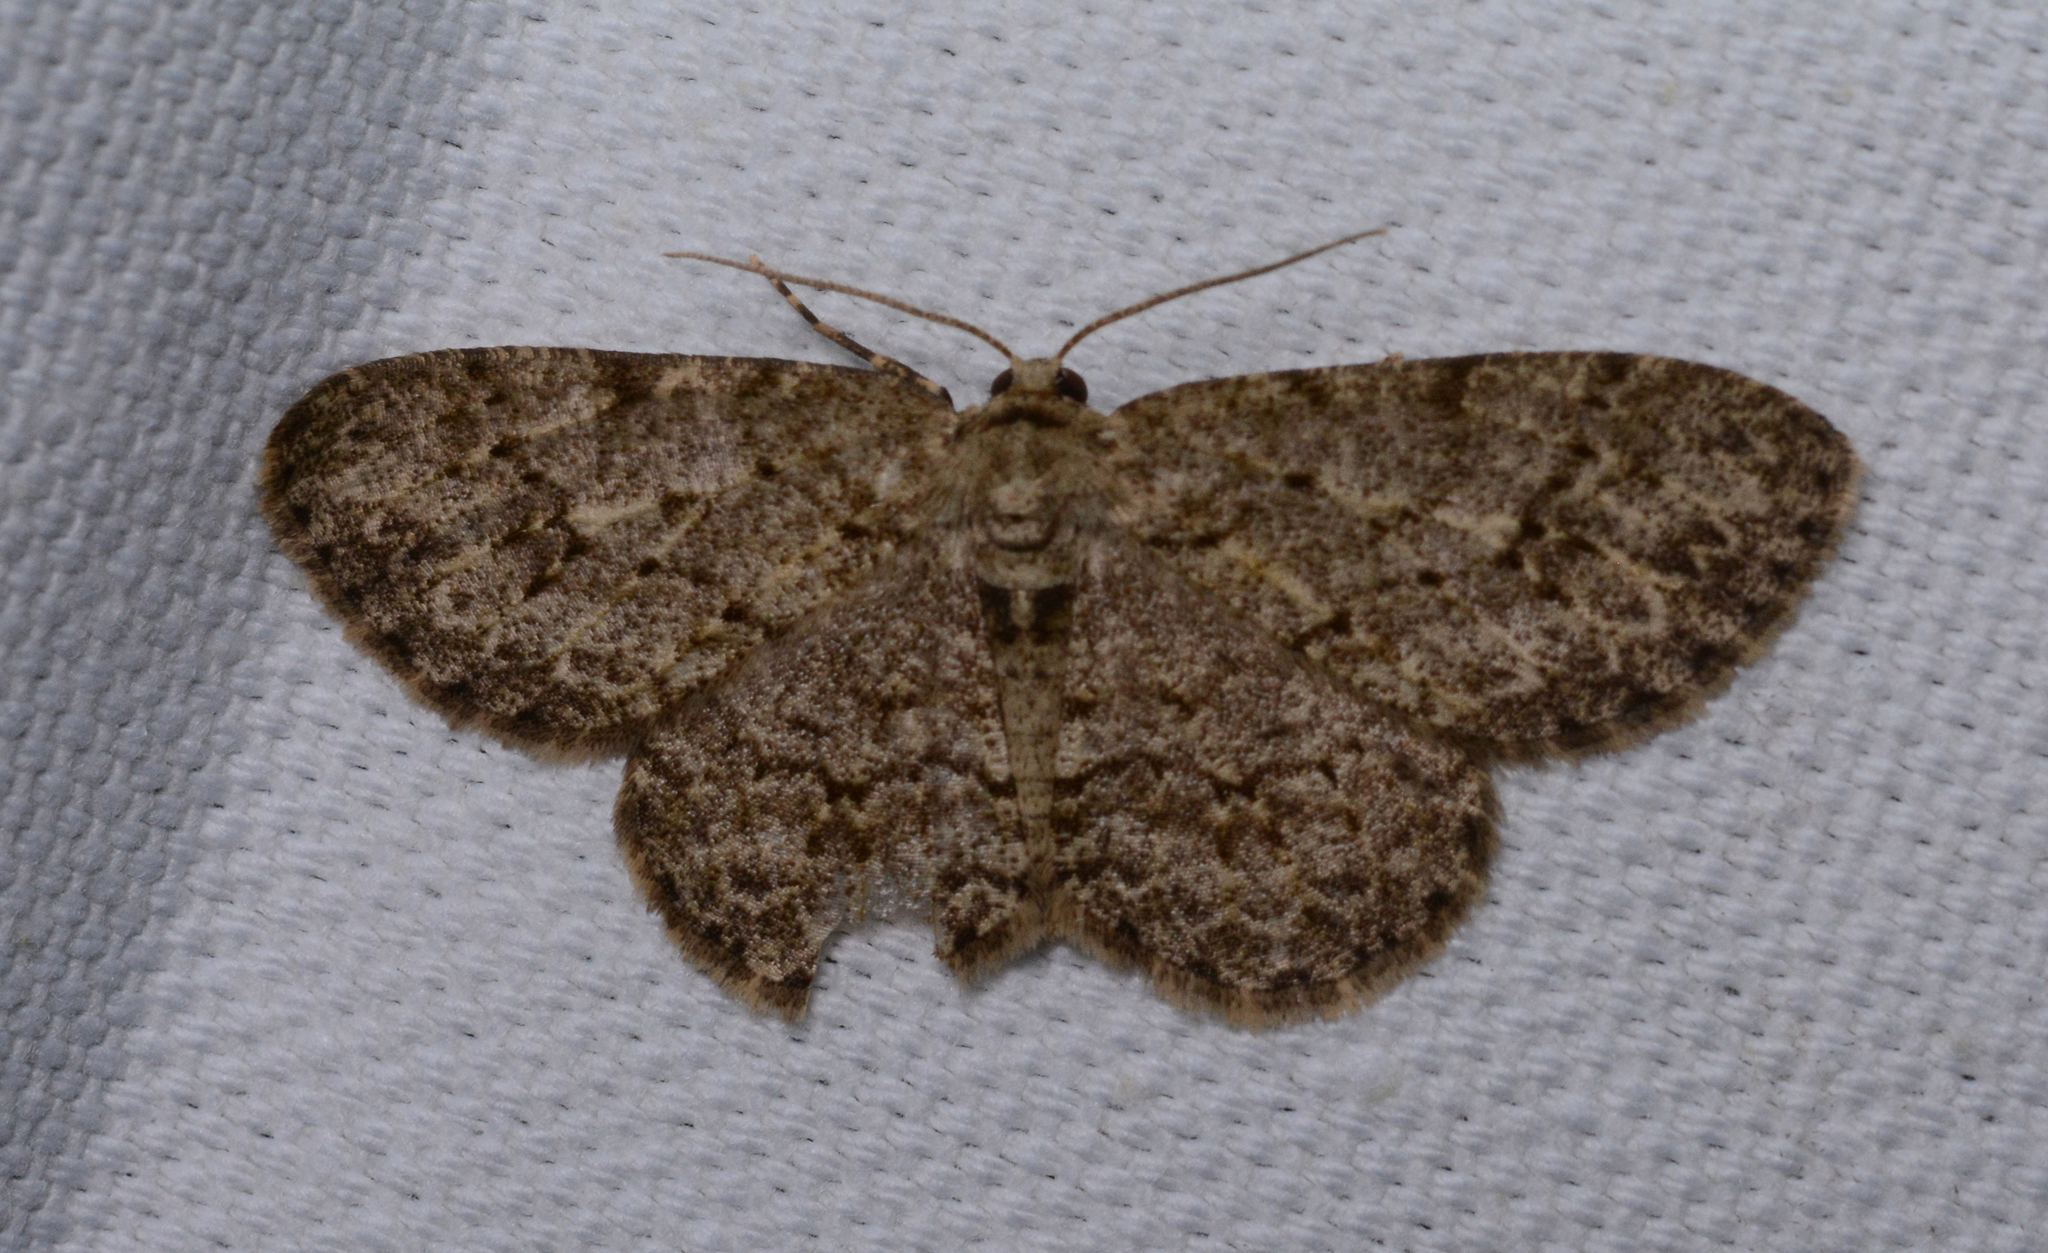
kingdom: Animalia
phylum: Arthropoda
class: Insecta
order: Lepidoptera
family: Geometridae
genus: Ectropis
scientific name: Ectropis crepuscularia
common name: Engrailed
